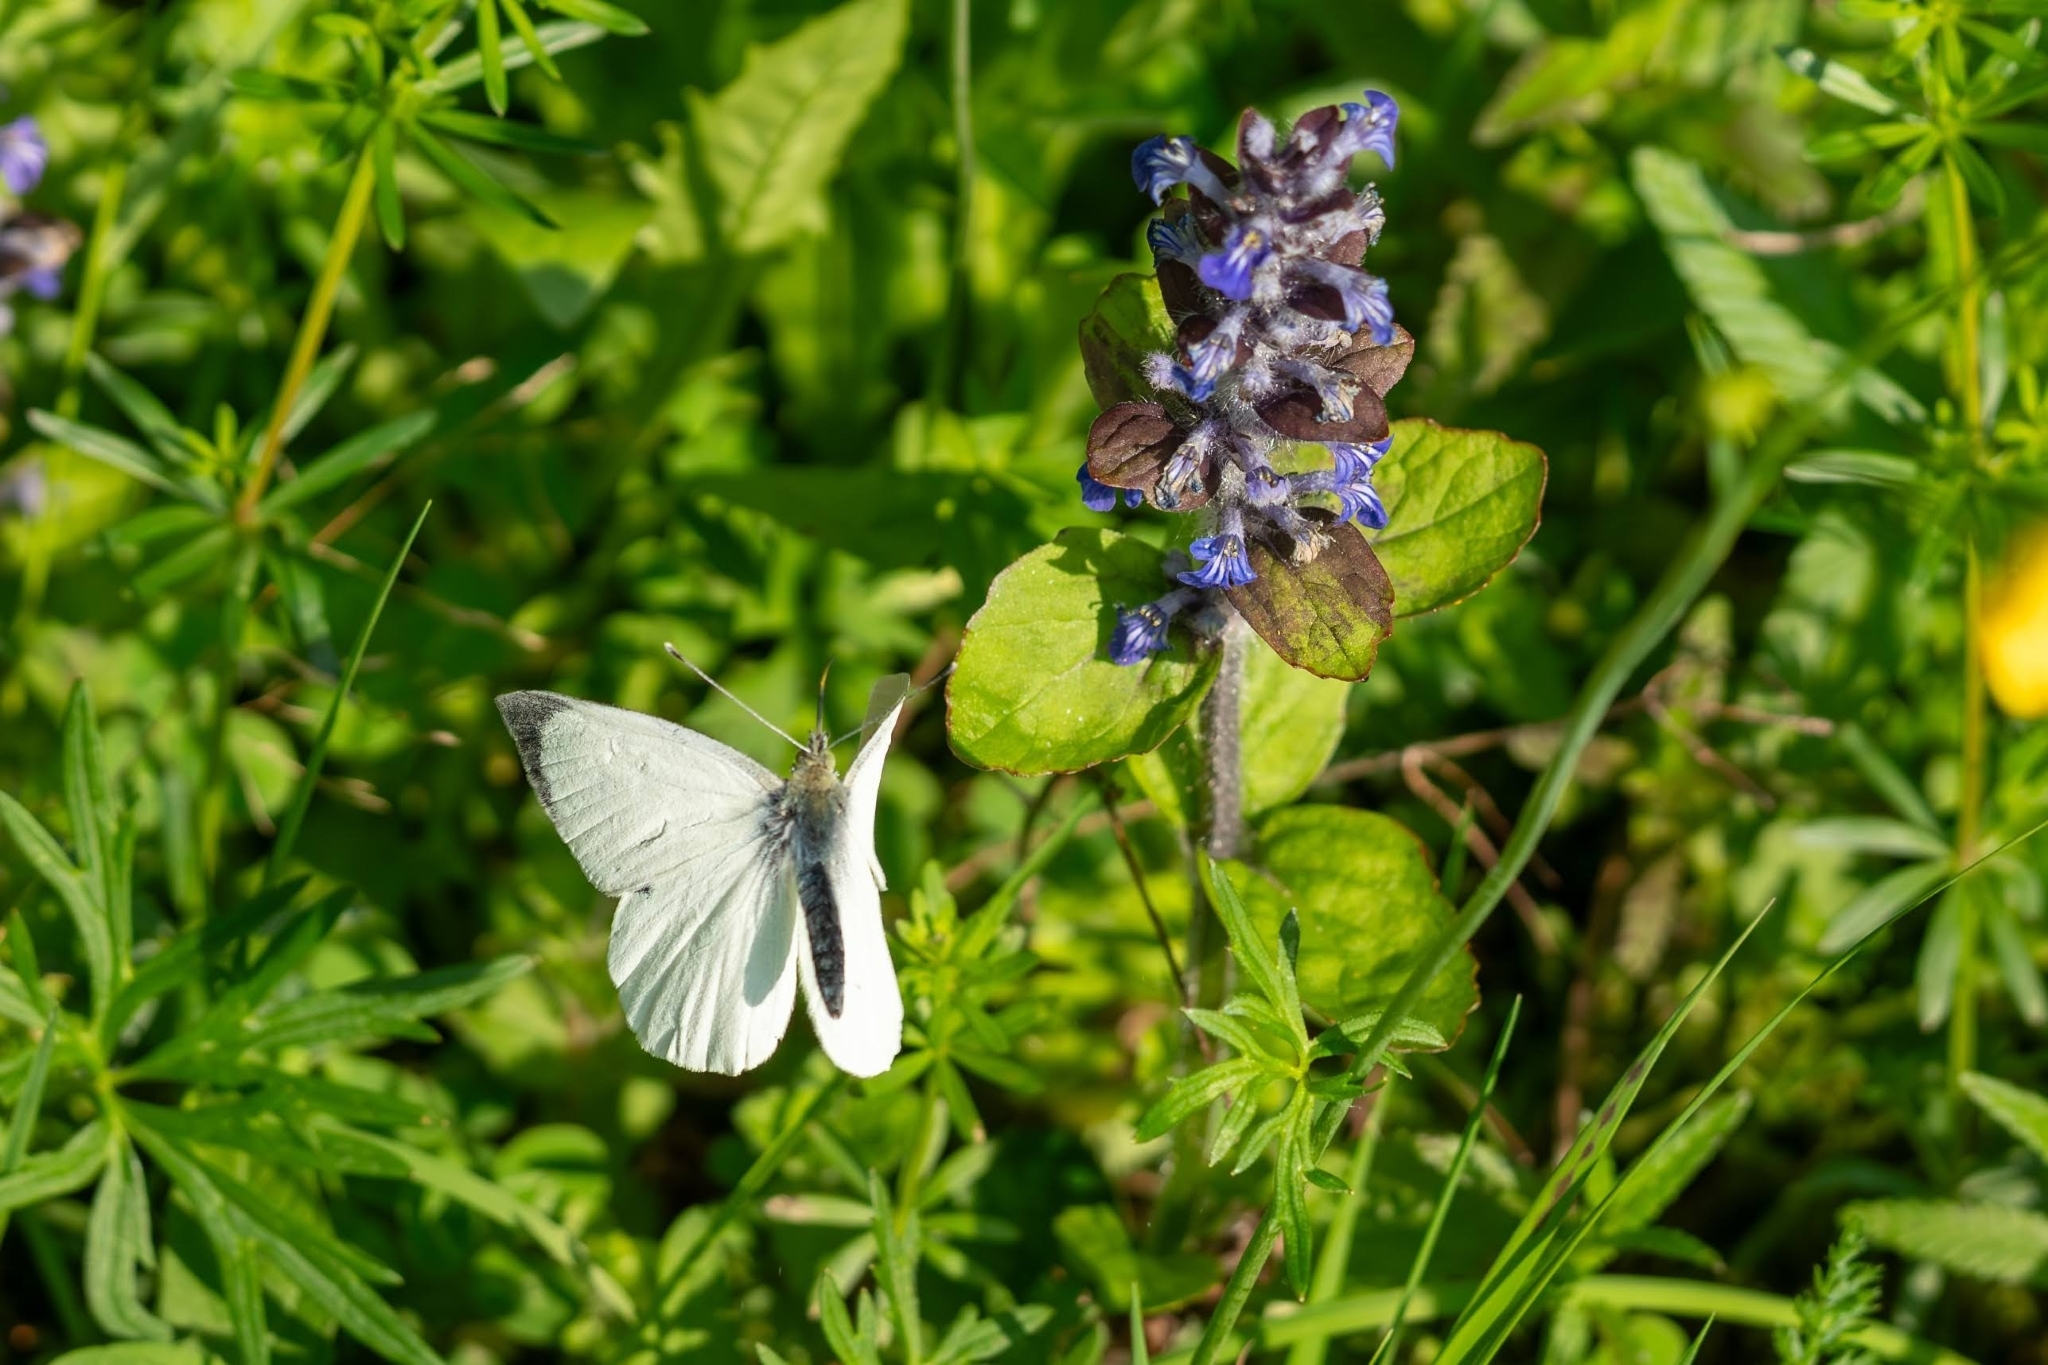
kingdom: Animalia
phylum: Arthropoda
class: Insecta
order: Lepidoptera
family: Pieridae
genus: Pieris
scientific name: Pieris brassicae
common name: Large white
